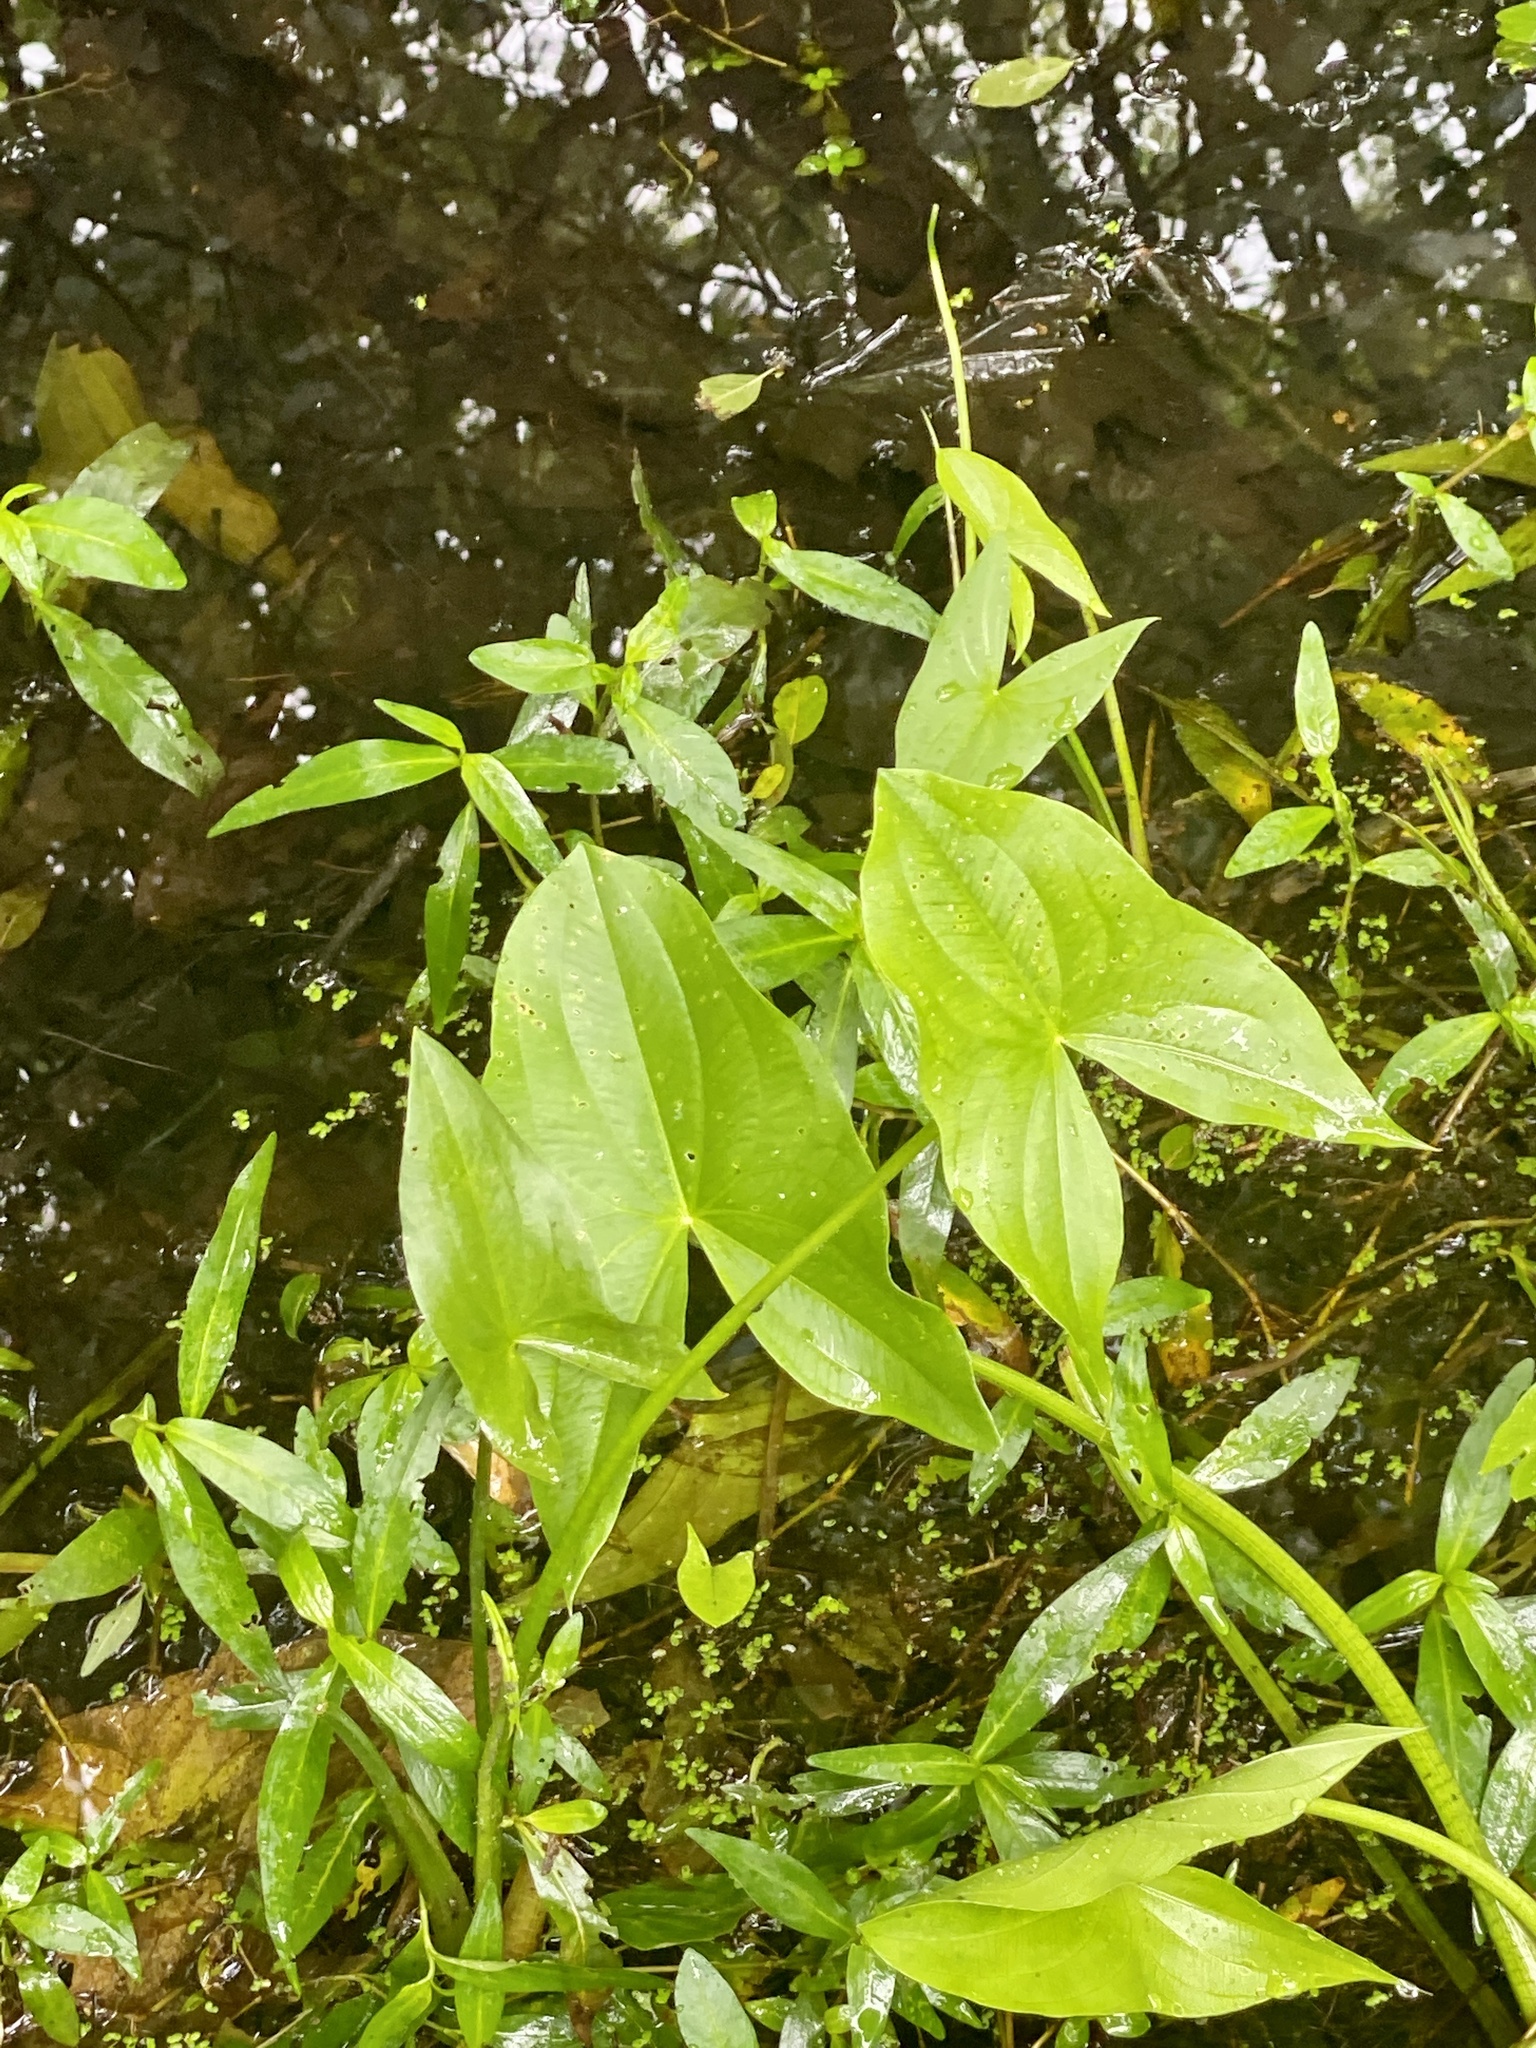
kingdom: Plantae
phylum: Tracheophyta
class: Liliopsida
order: Alismatales
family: Alismataceae
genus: Sagittaria
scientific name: Sagittaria latifolia
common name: Duck-potato
